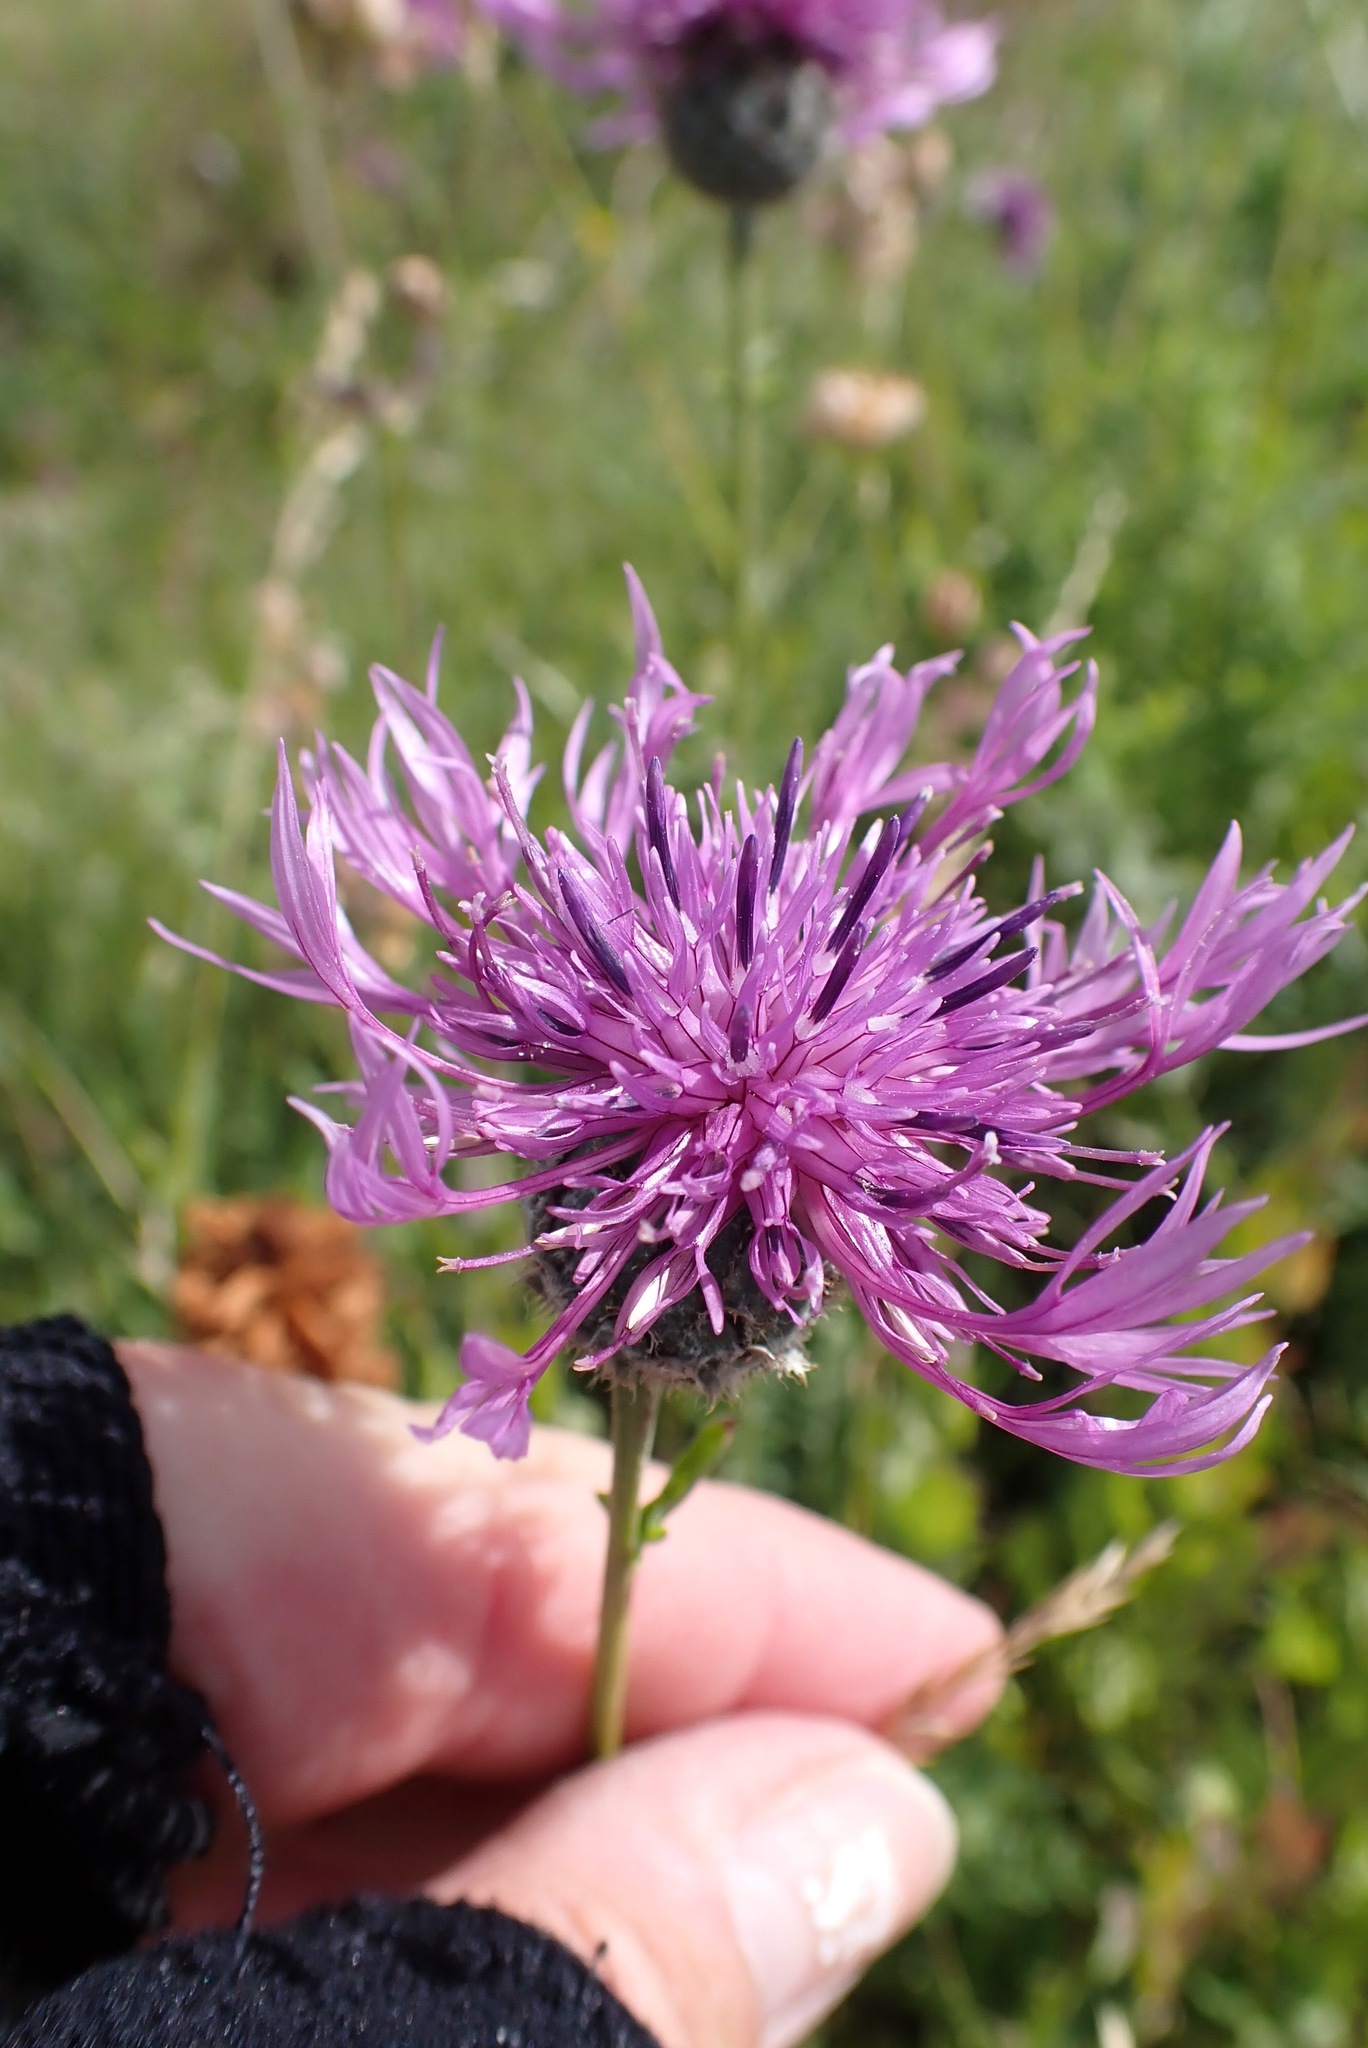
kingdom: Plantae
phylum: Tracheophyta
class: Magnoliopsida
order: Asterales
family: Asteraceae
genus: Centaurea
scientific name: Centaurea scabiosa
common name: Greater knapweed
